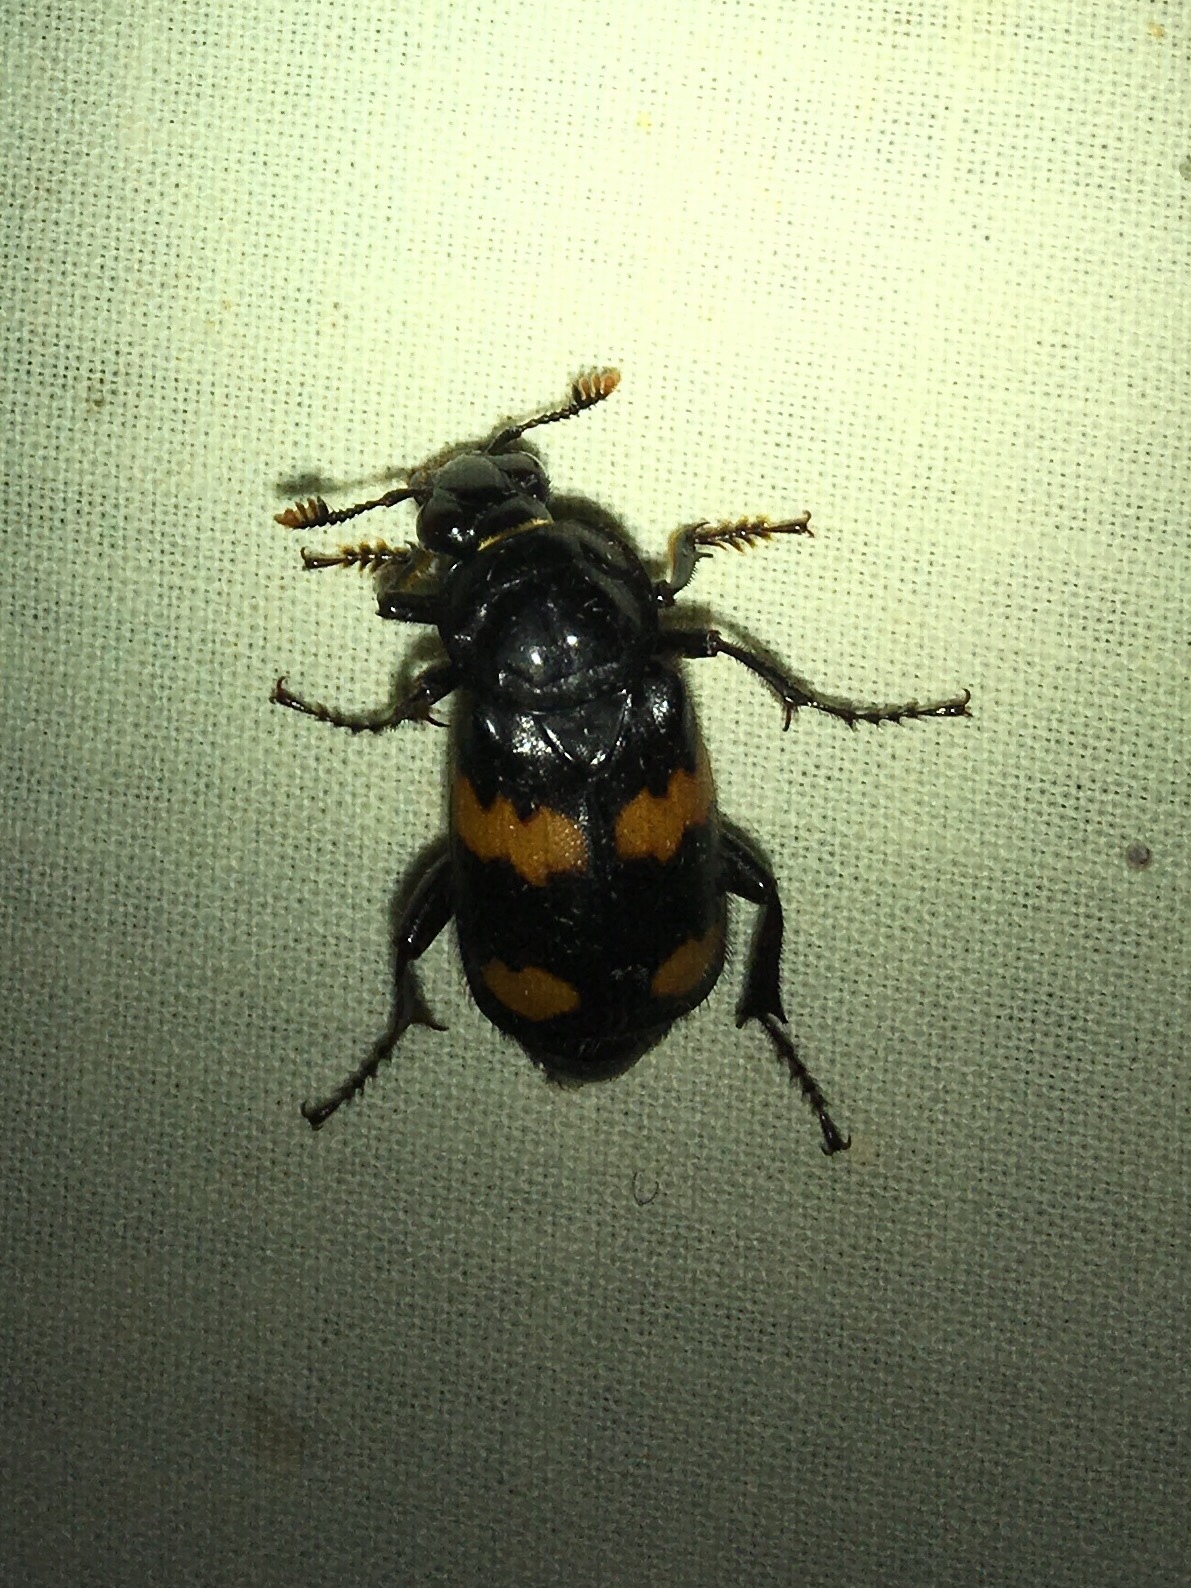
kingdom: Animalia
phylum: Arthropoda
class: Insecta
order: Coleoptera
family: Staphylinidae
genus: Nicrophorus
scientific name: Nicrophorus orbicollis
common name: Roundneck sexton beetle
